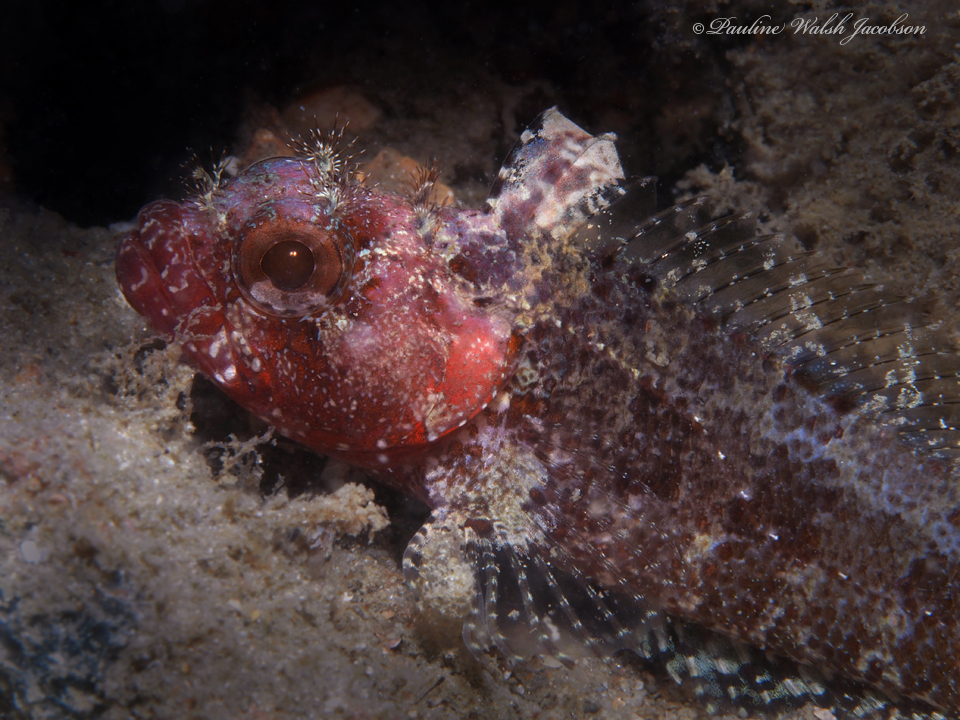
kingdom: Animalia
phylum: Chordata
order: Perciformes
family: Labrisomidae
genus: Gobioclinus
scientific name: Gobioclinus kalisherae
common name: Downy blenny
